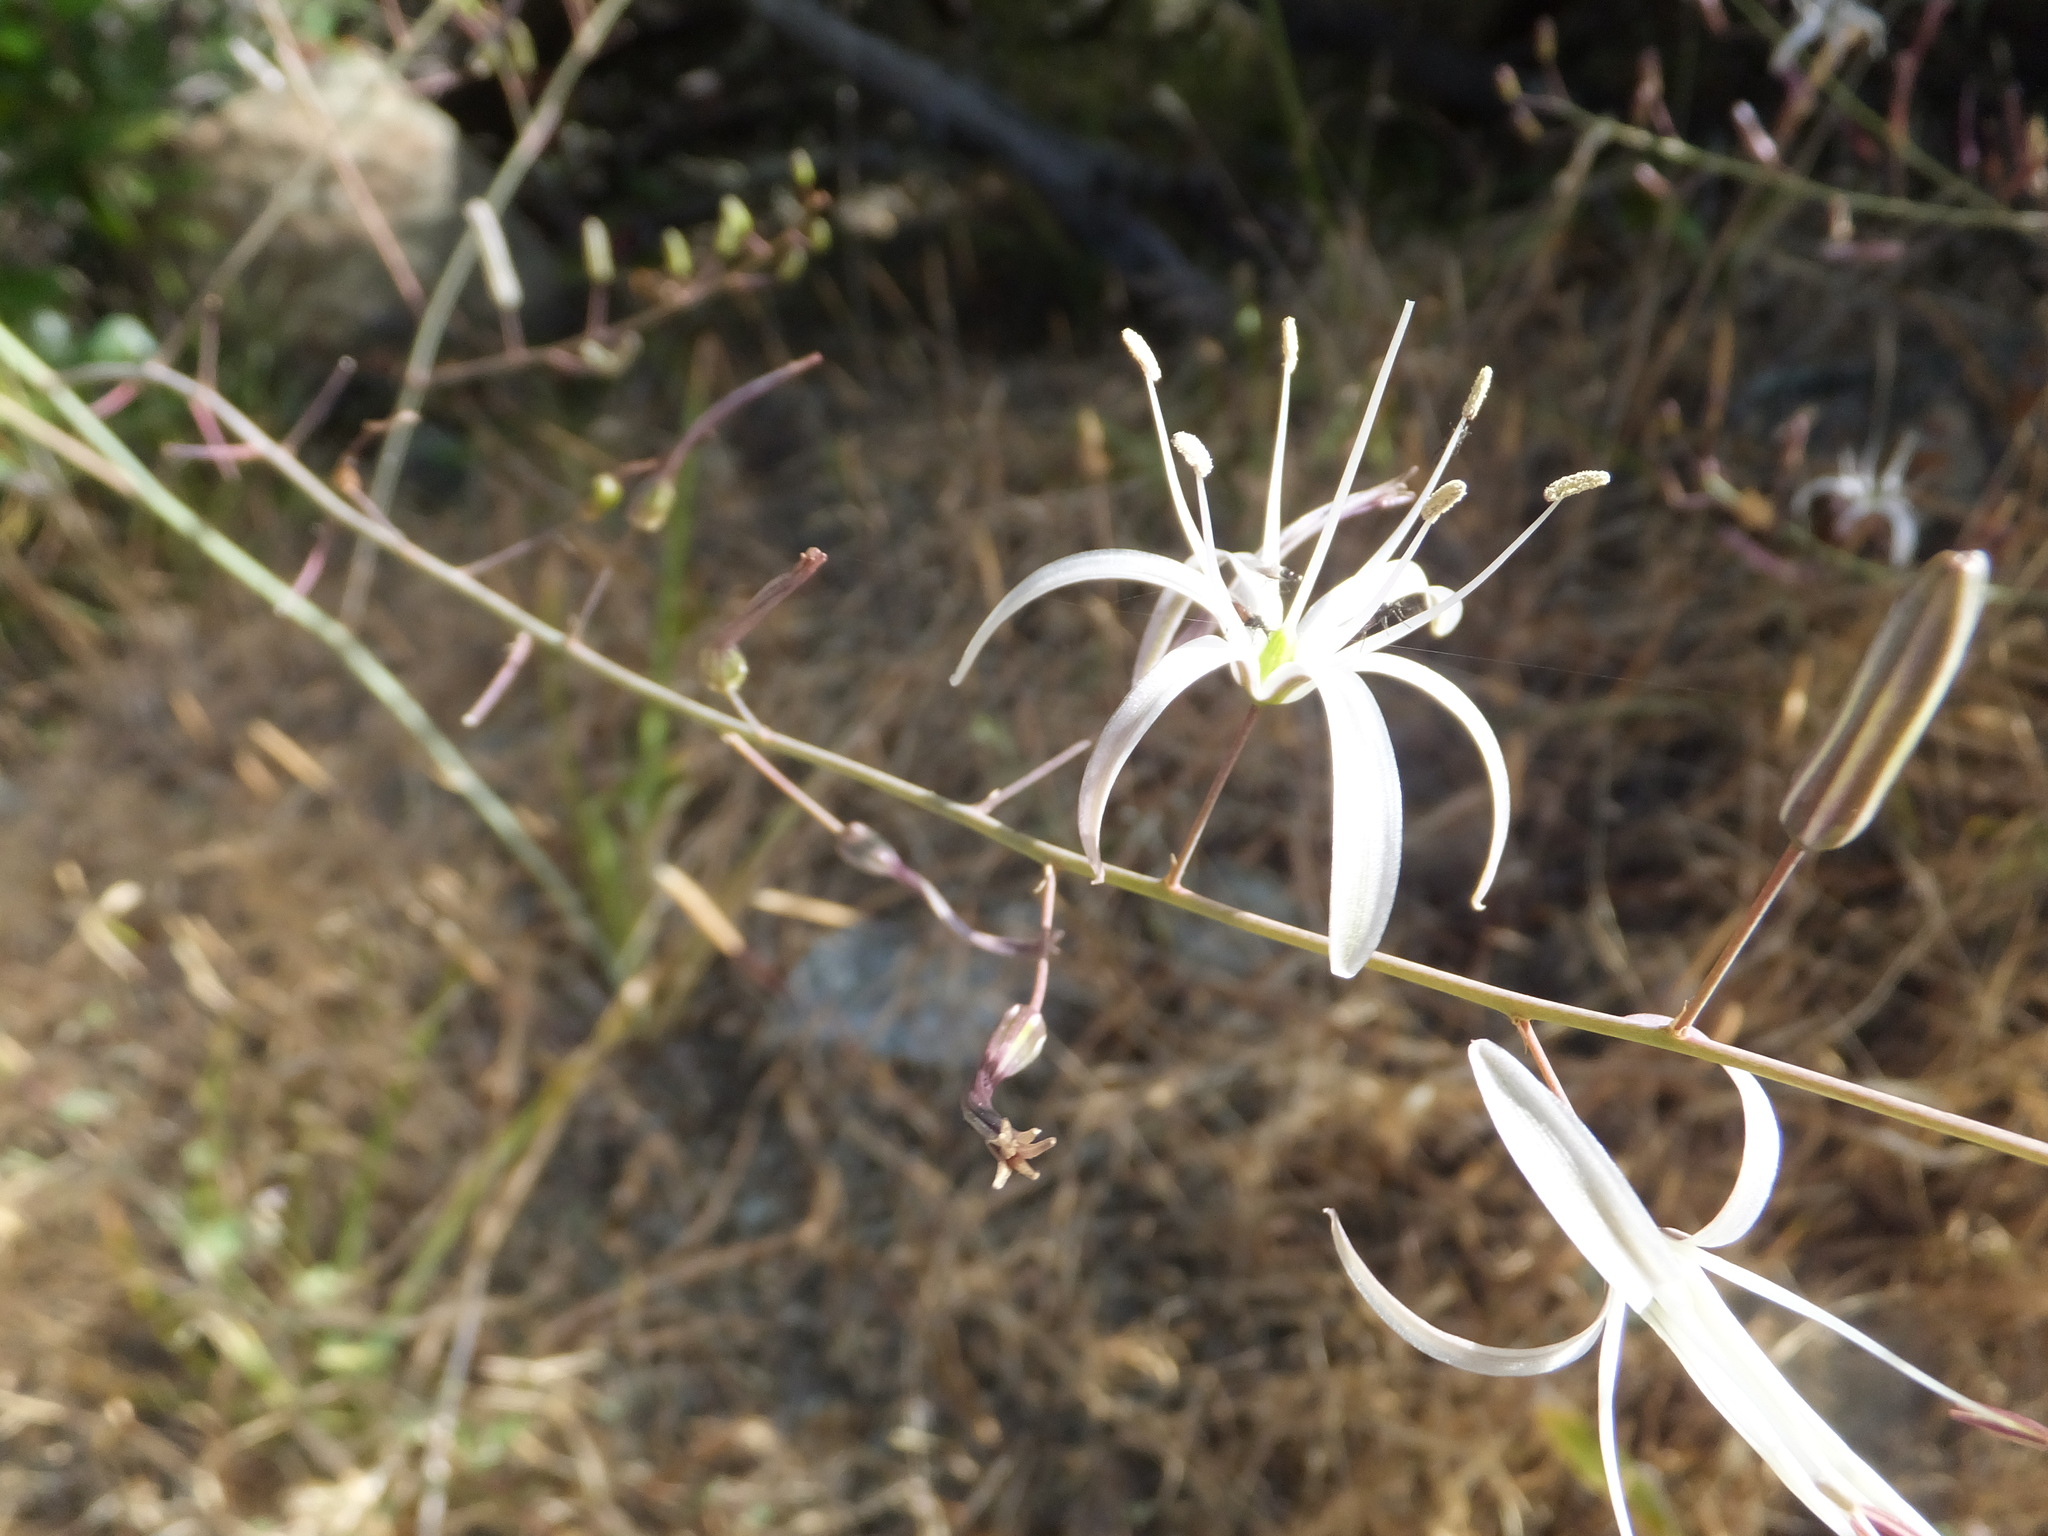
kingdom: Plantae
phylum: Tracheophyta
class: Liliopsida
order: Asparagales
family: Asparagaceae
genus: Chlorogalum
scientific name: Chlorogalum pomeridianum
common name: Amole
